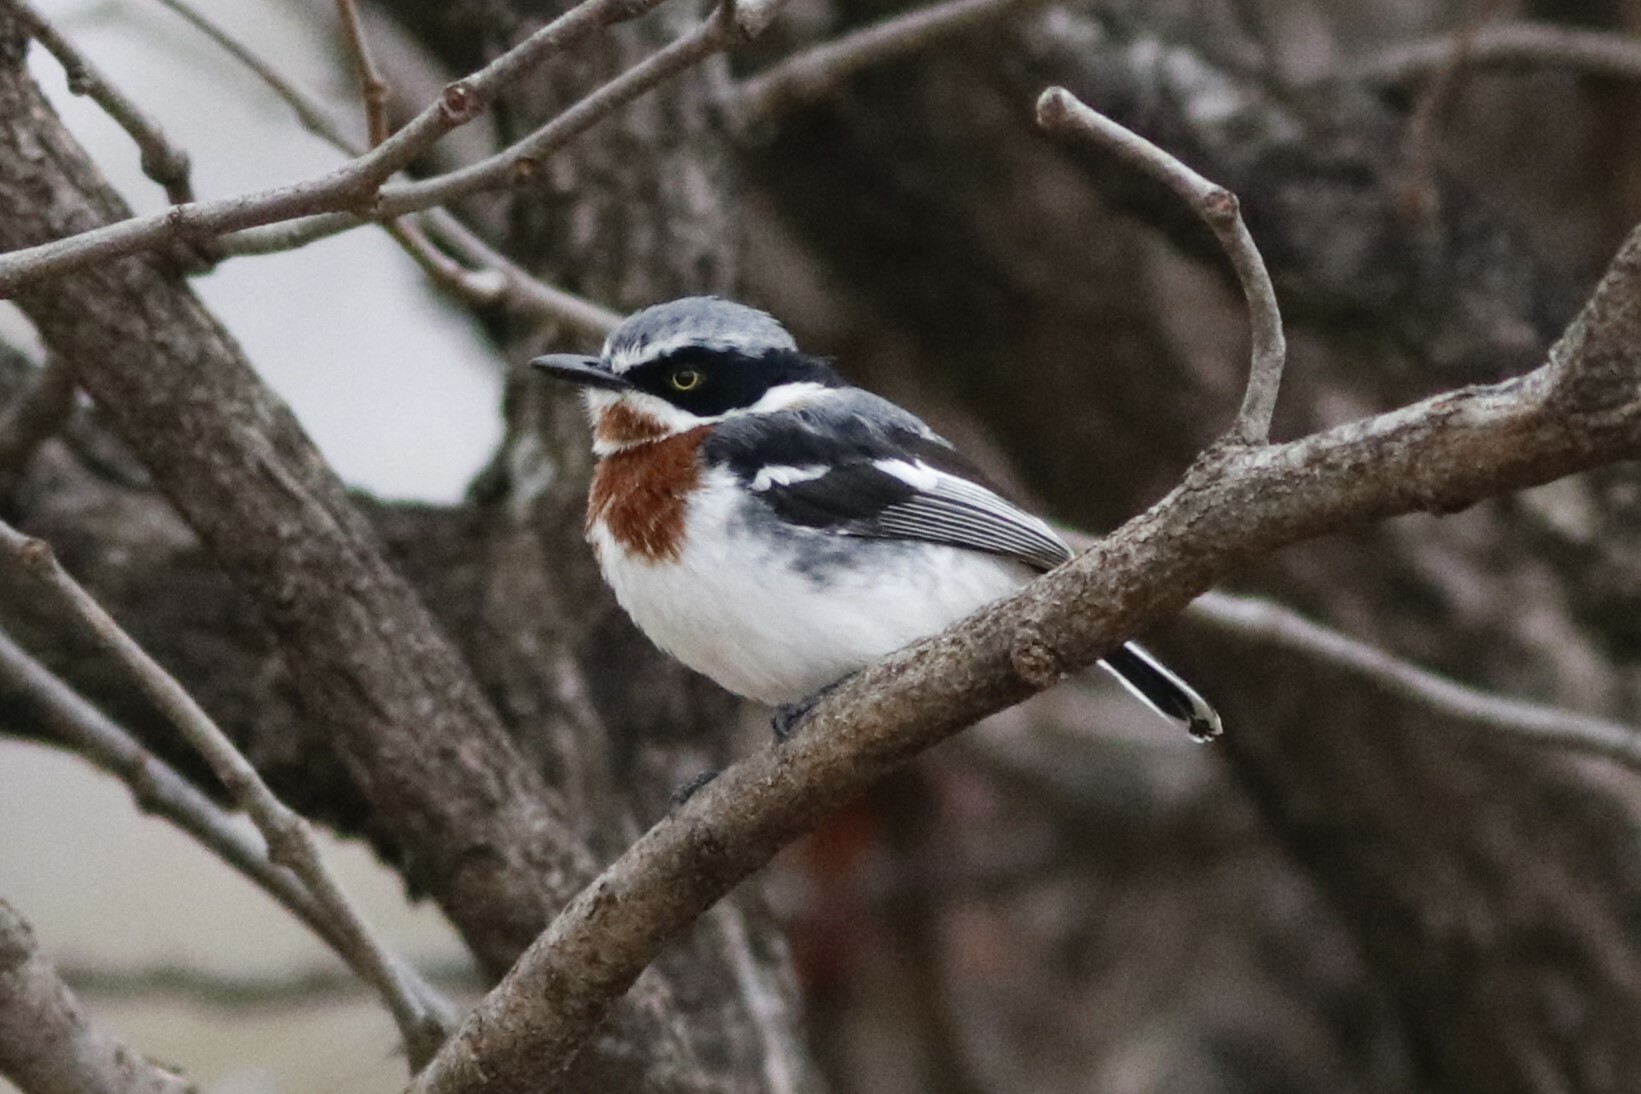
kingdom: Animalia
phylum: Chordata
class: Aves
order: Passeriformes
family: Platysteiridae
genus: Batis
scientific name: Batis molitor
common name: Chinspot batis
